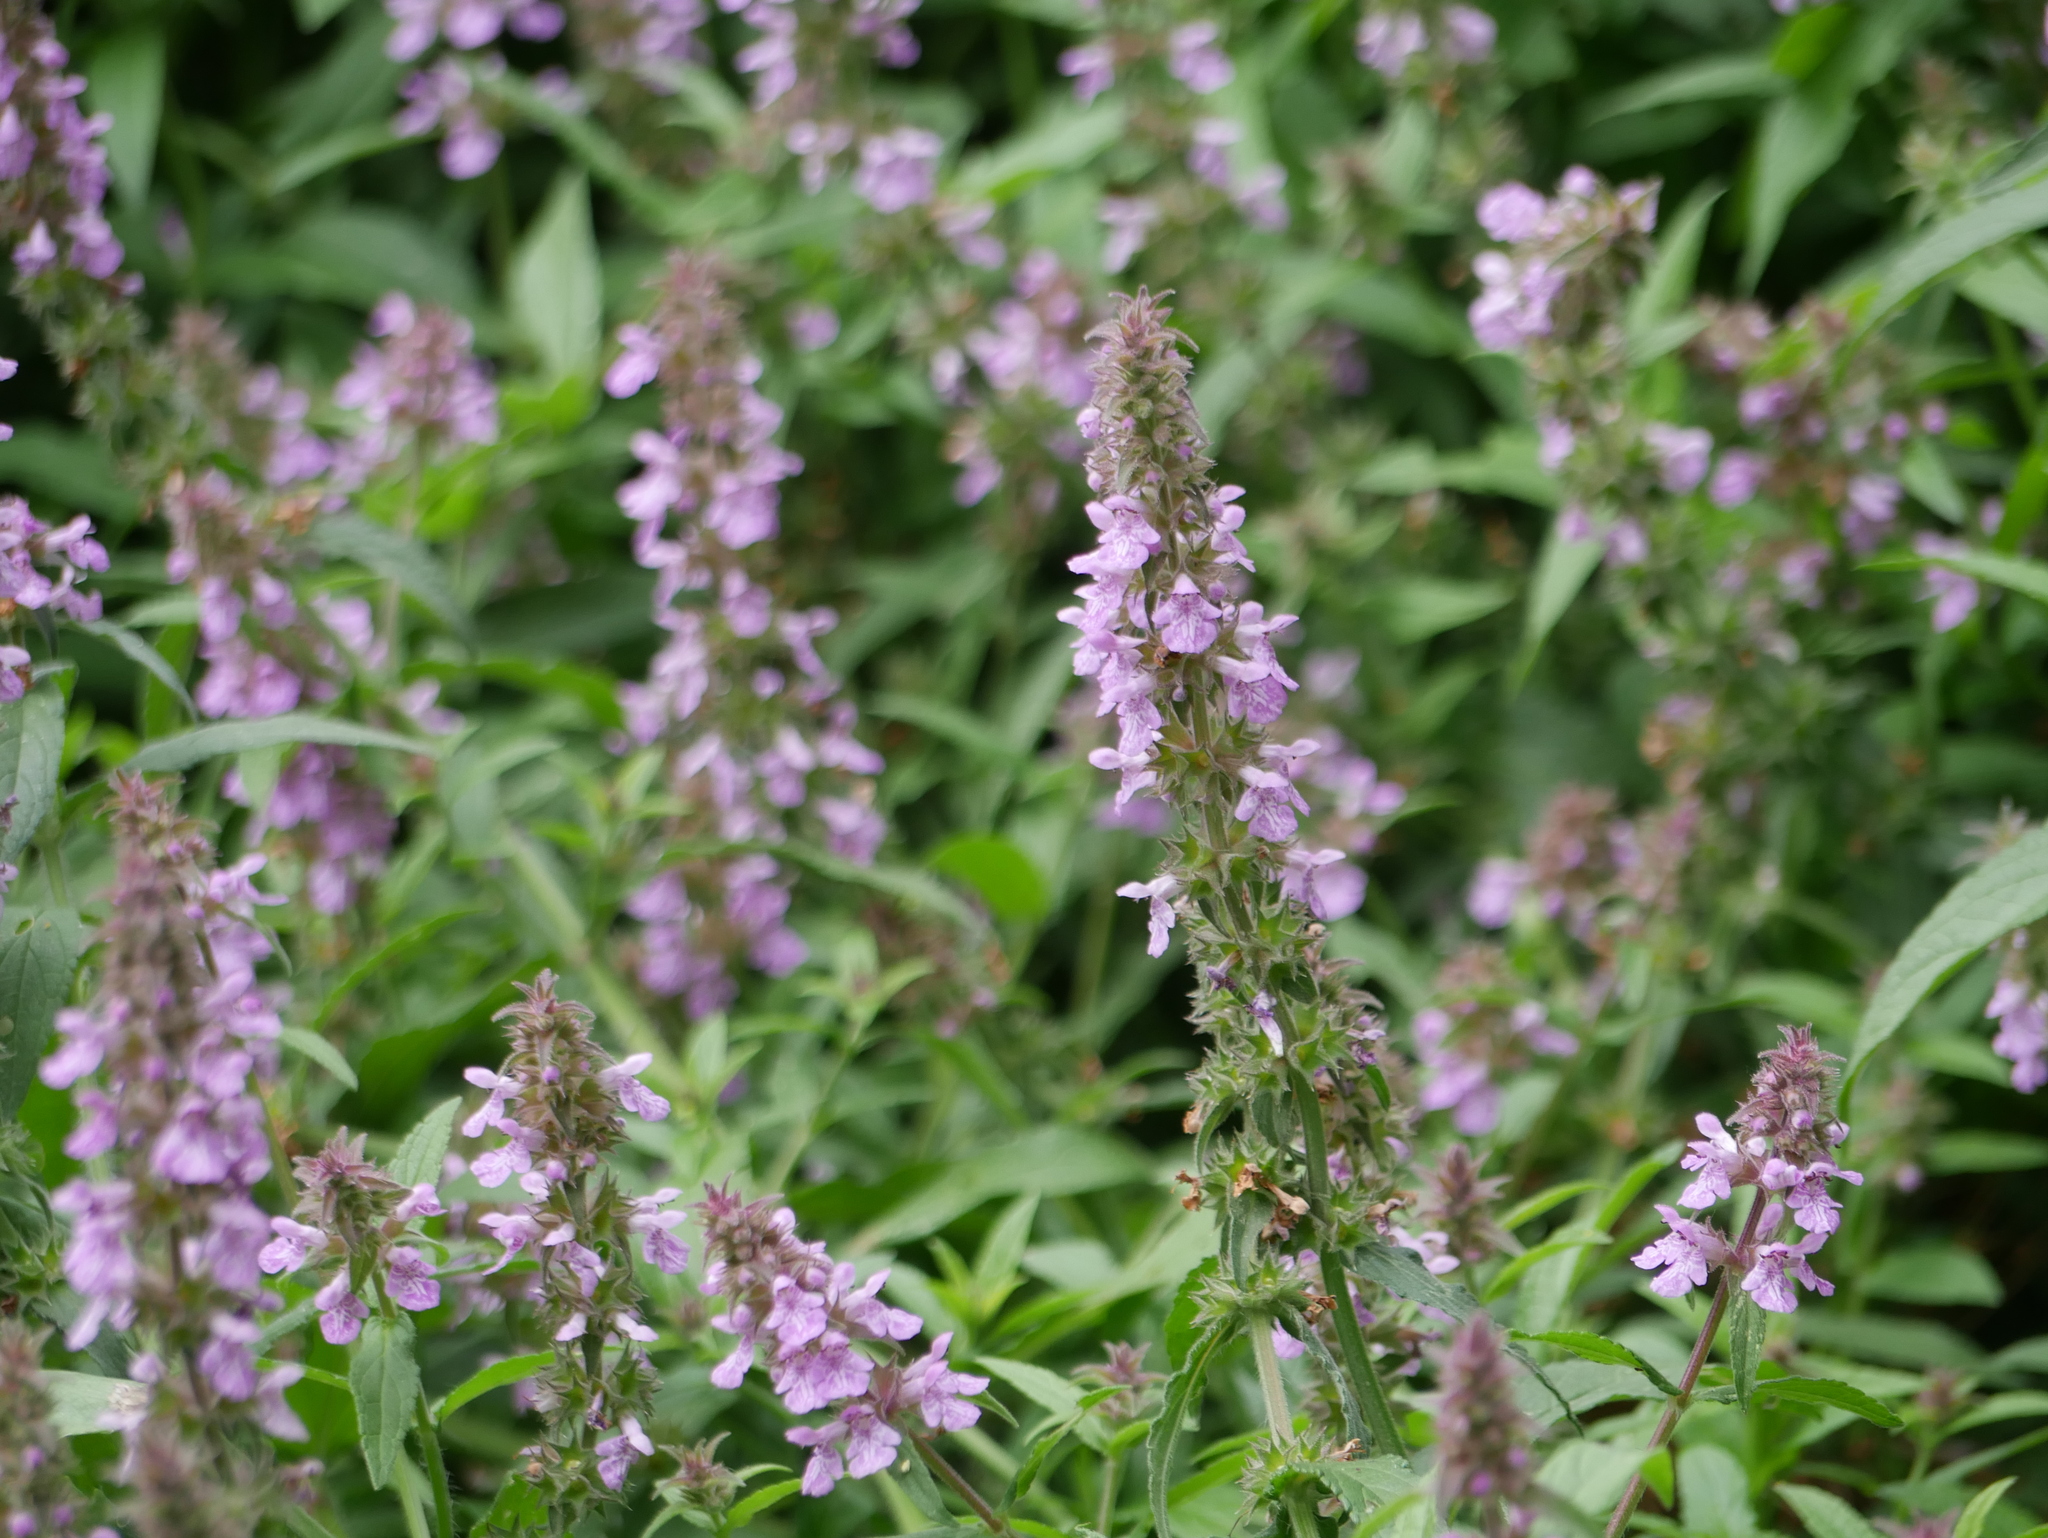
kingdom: Plantae
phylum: Tracheophyta
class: Magnoliopsida
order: Lamiales
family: Lamiaceae
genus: Stachys
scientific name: Stachys palustris
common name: Marsh woundwort
